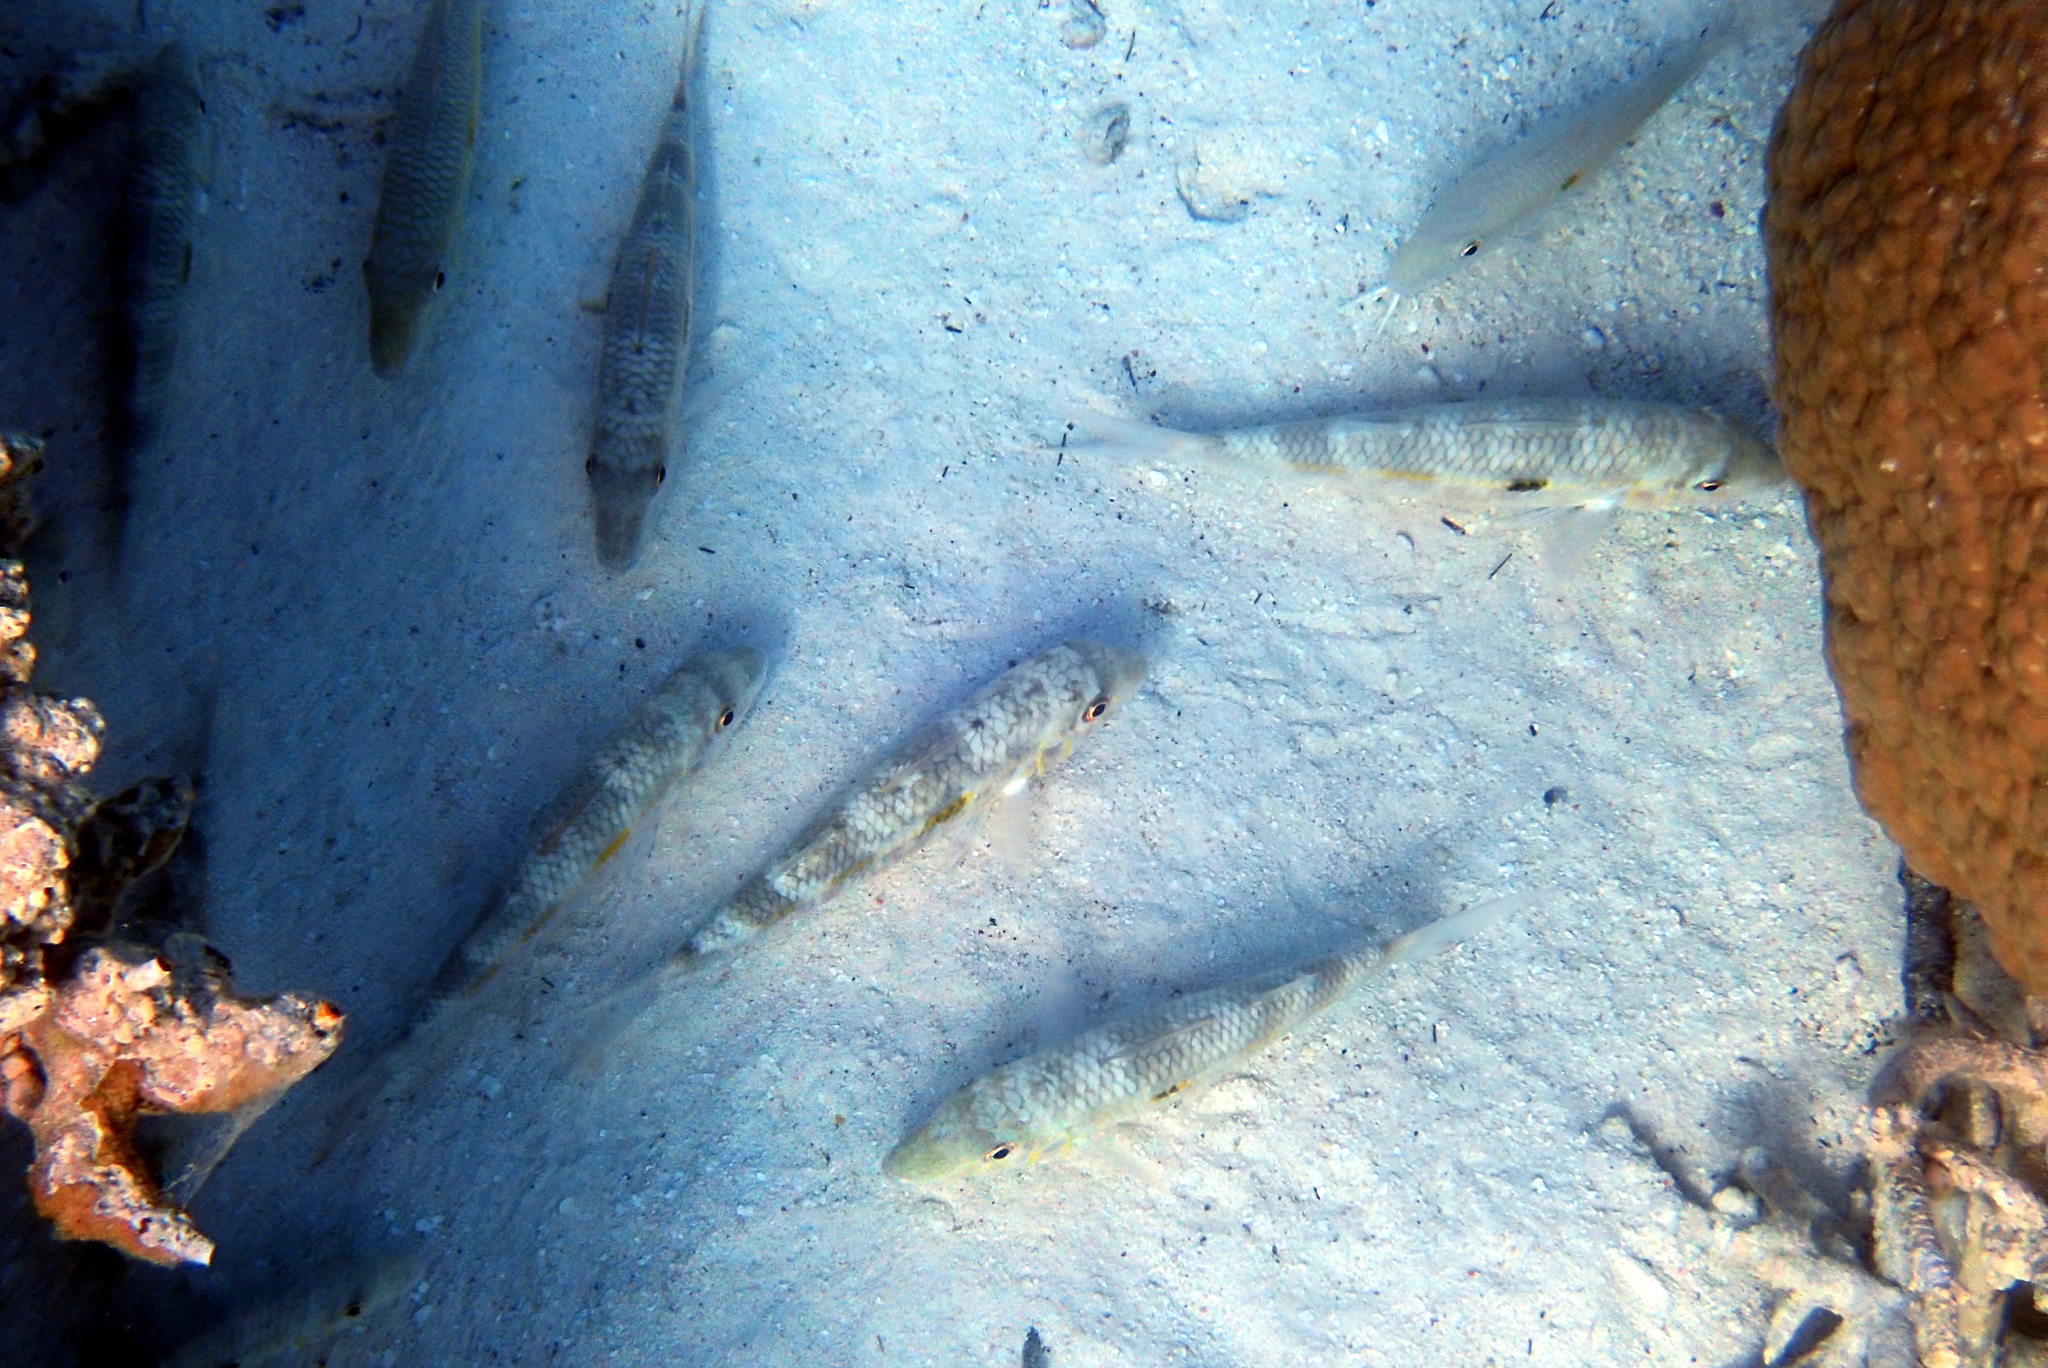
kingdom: Animalia
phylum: Chordata
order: Perciformes
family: Mullidae
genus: Mulloidichthys
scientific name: Mulloidichthys flavolineatus
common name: Yellowstripe goatfish
